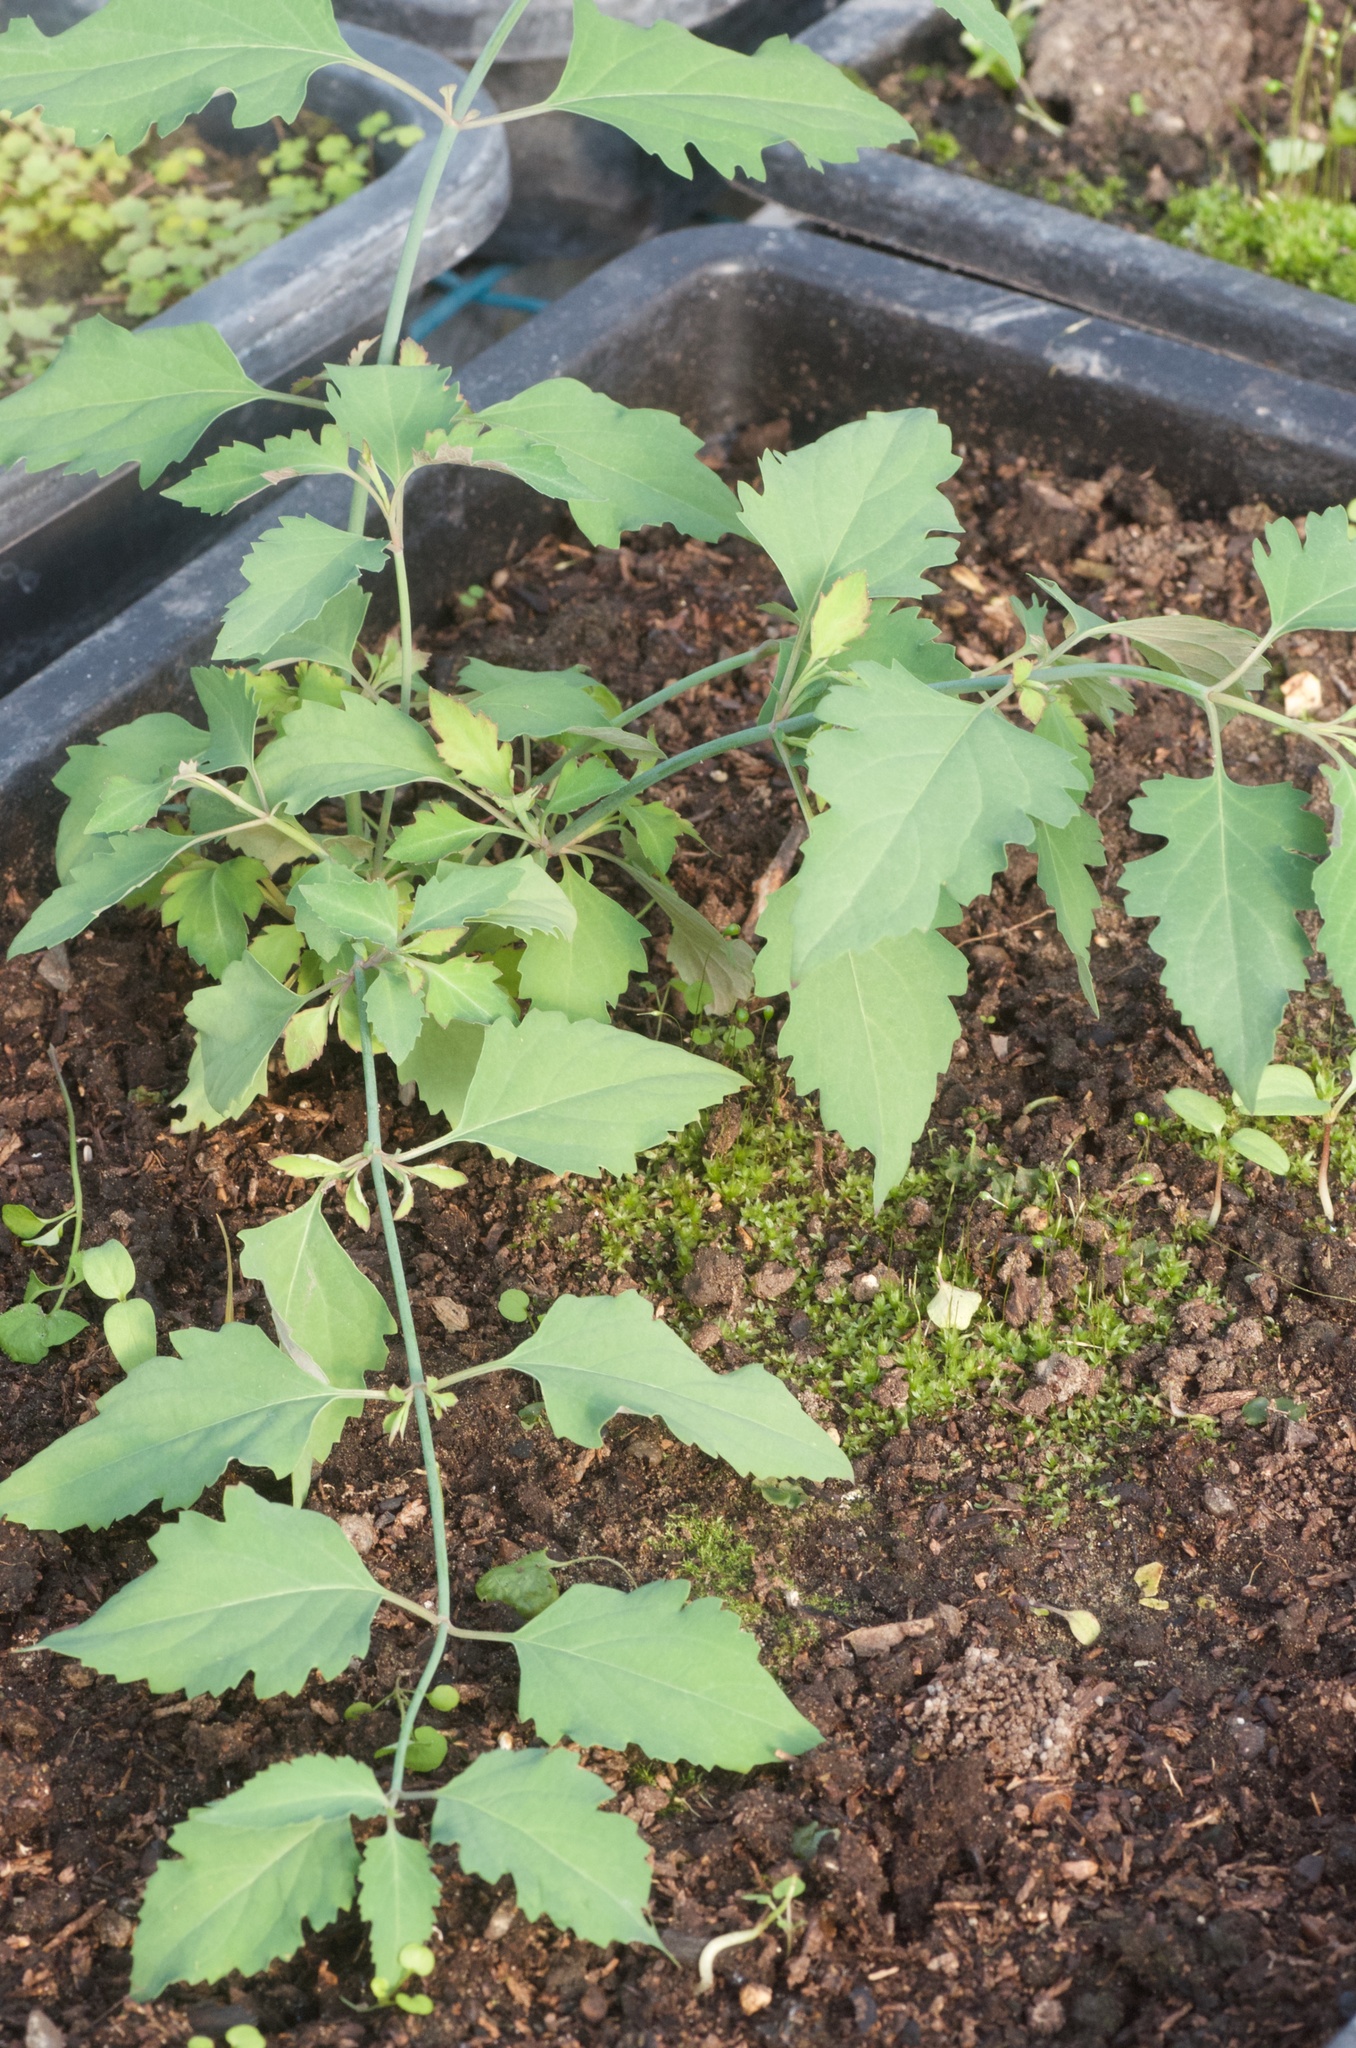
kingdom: Plantae
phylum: Tracheophyta
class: Magnoliopsida
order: Dipsacales
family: Caprifoliaceae
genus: Leycesteria
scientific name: Leycesteria formosa
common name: Himalayan honeysuckle
